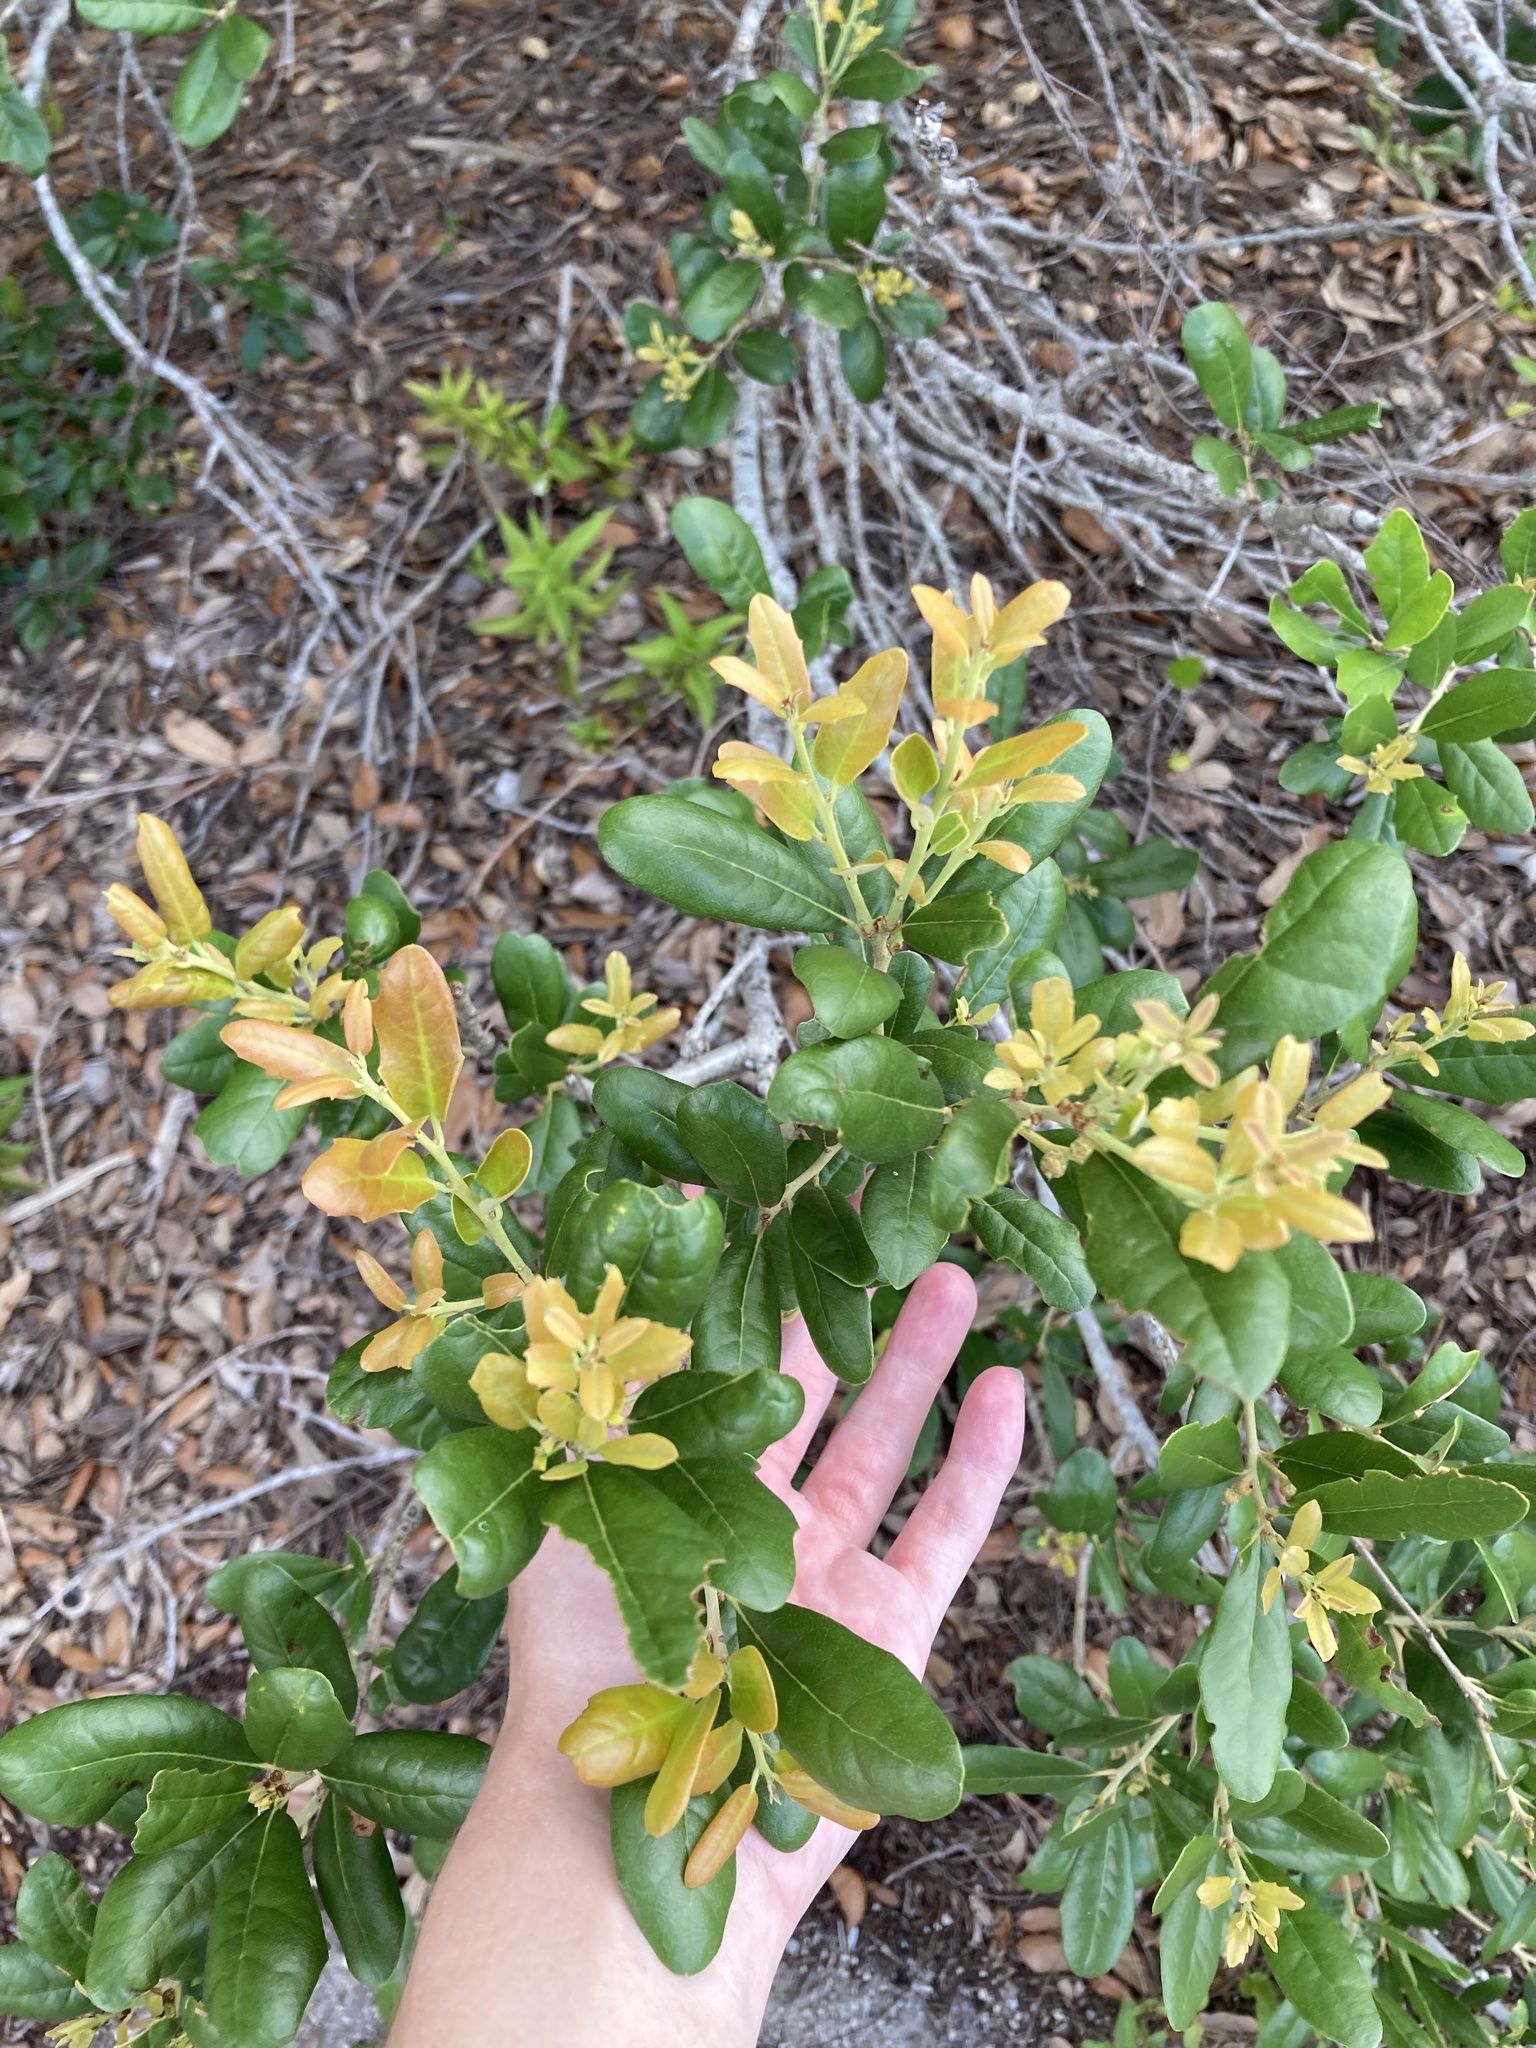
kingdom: Plantae
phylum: Tracheophyta
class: Magnoliopsida
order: Fagales
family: Fagaceae
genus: Quercus
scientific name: Quercus virginiana
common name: Southern live oak
